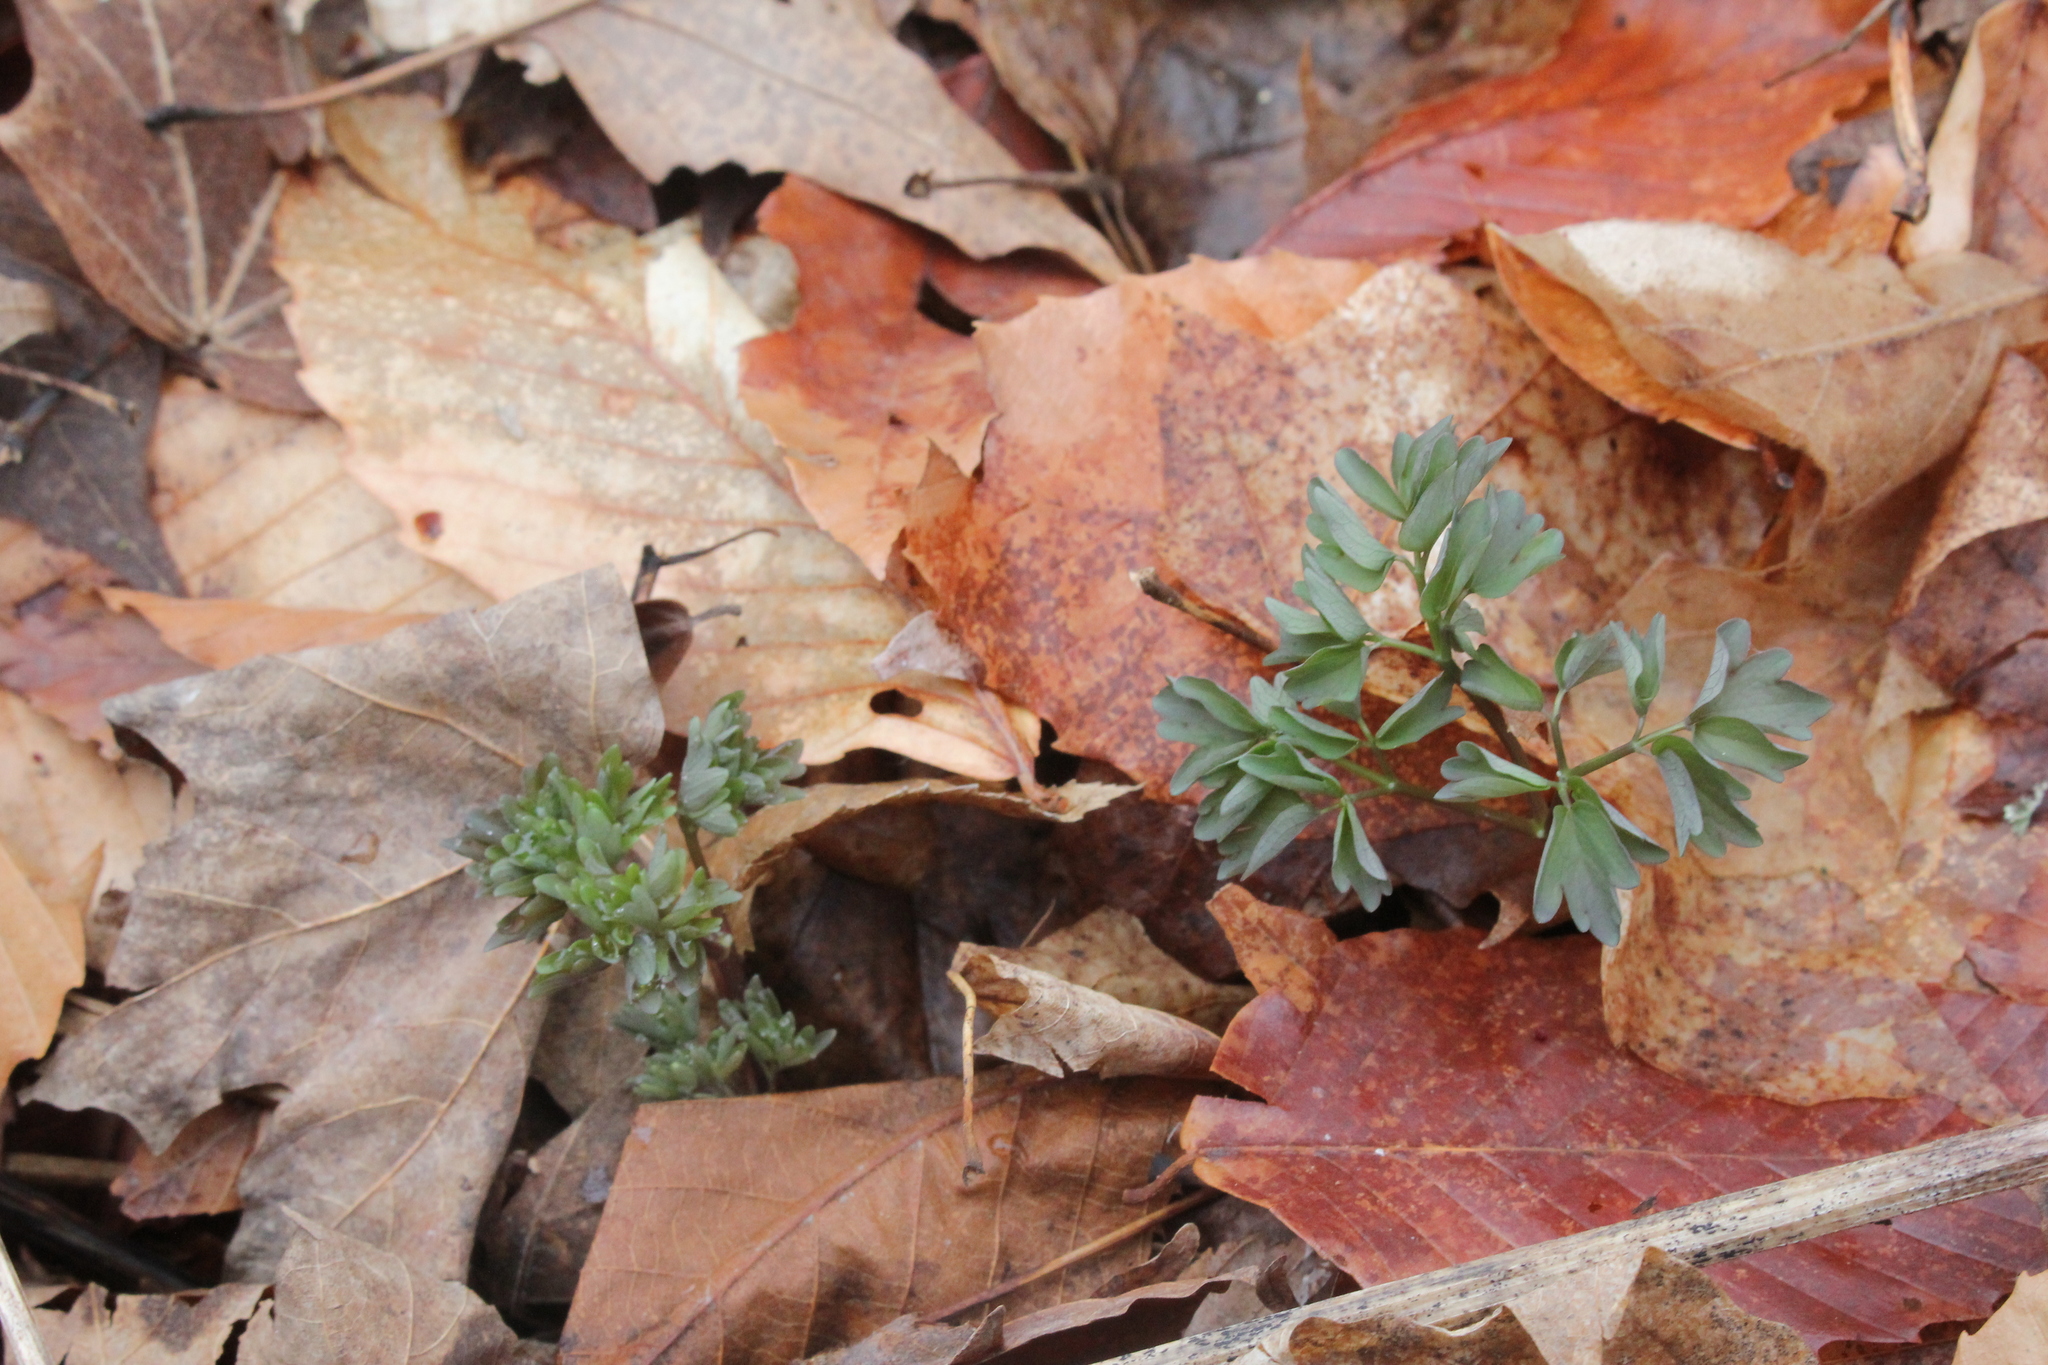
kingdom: Plantae
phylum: Tracheophyta
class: Magnoliopsida
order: Ranunculales
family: Ranunculaceae
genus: Thalictrum
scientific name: Thalictrum dioicum
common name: Early meadow-rue
